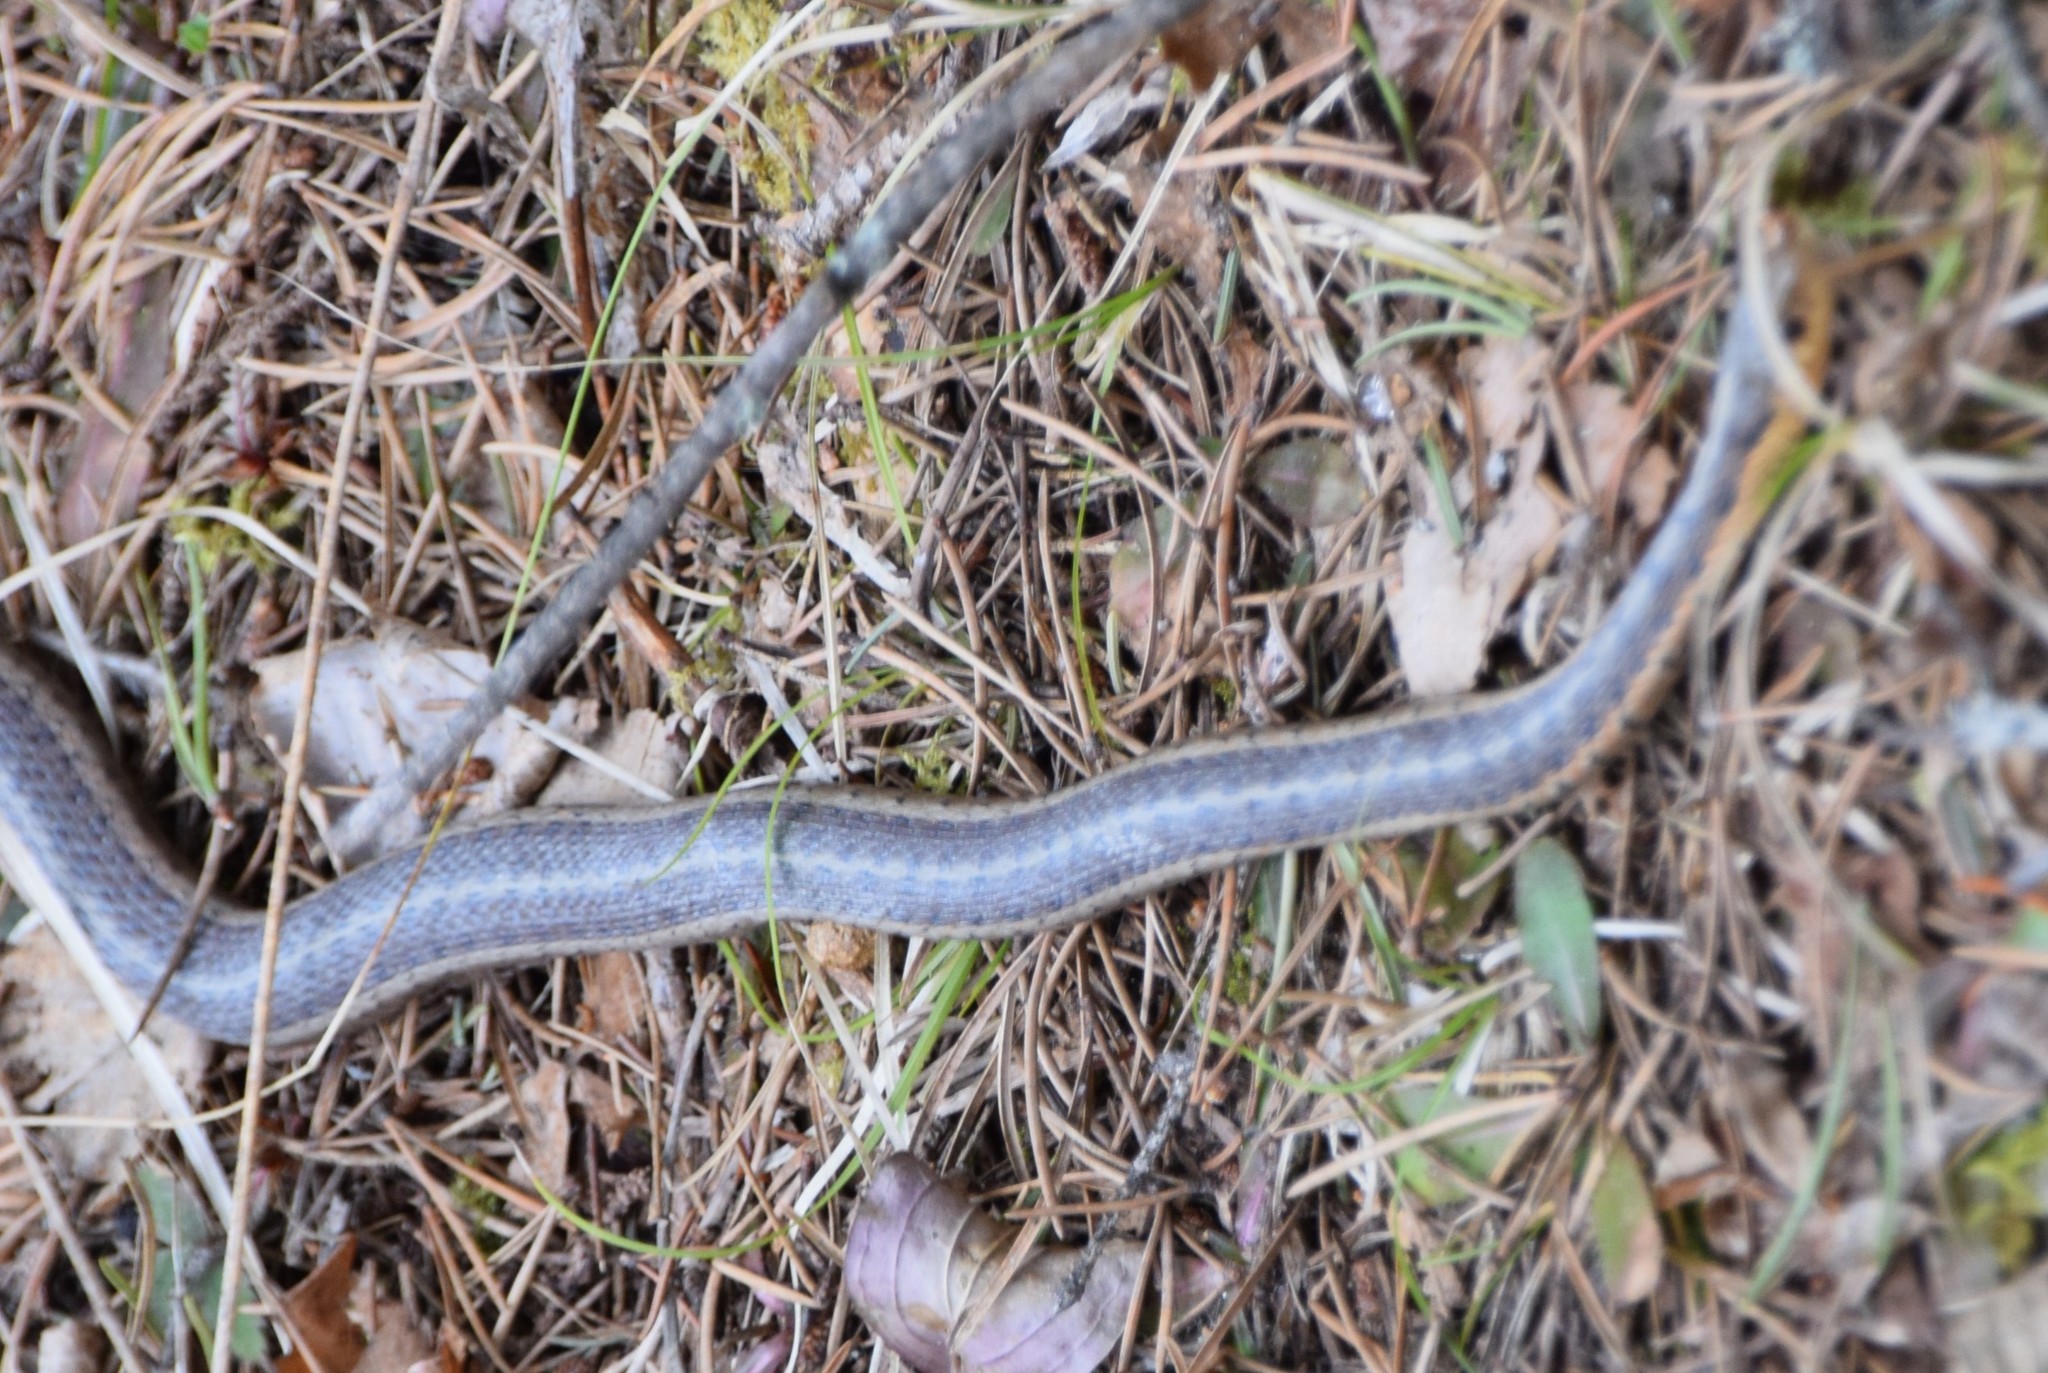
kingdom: Animalia
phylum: Chordata
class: Squamata
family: Colubridae
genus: Thamnophis
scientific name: Thamnophis sirtalis
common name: Common garter snake
